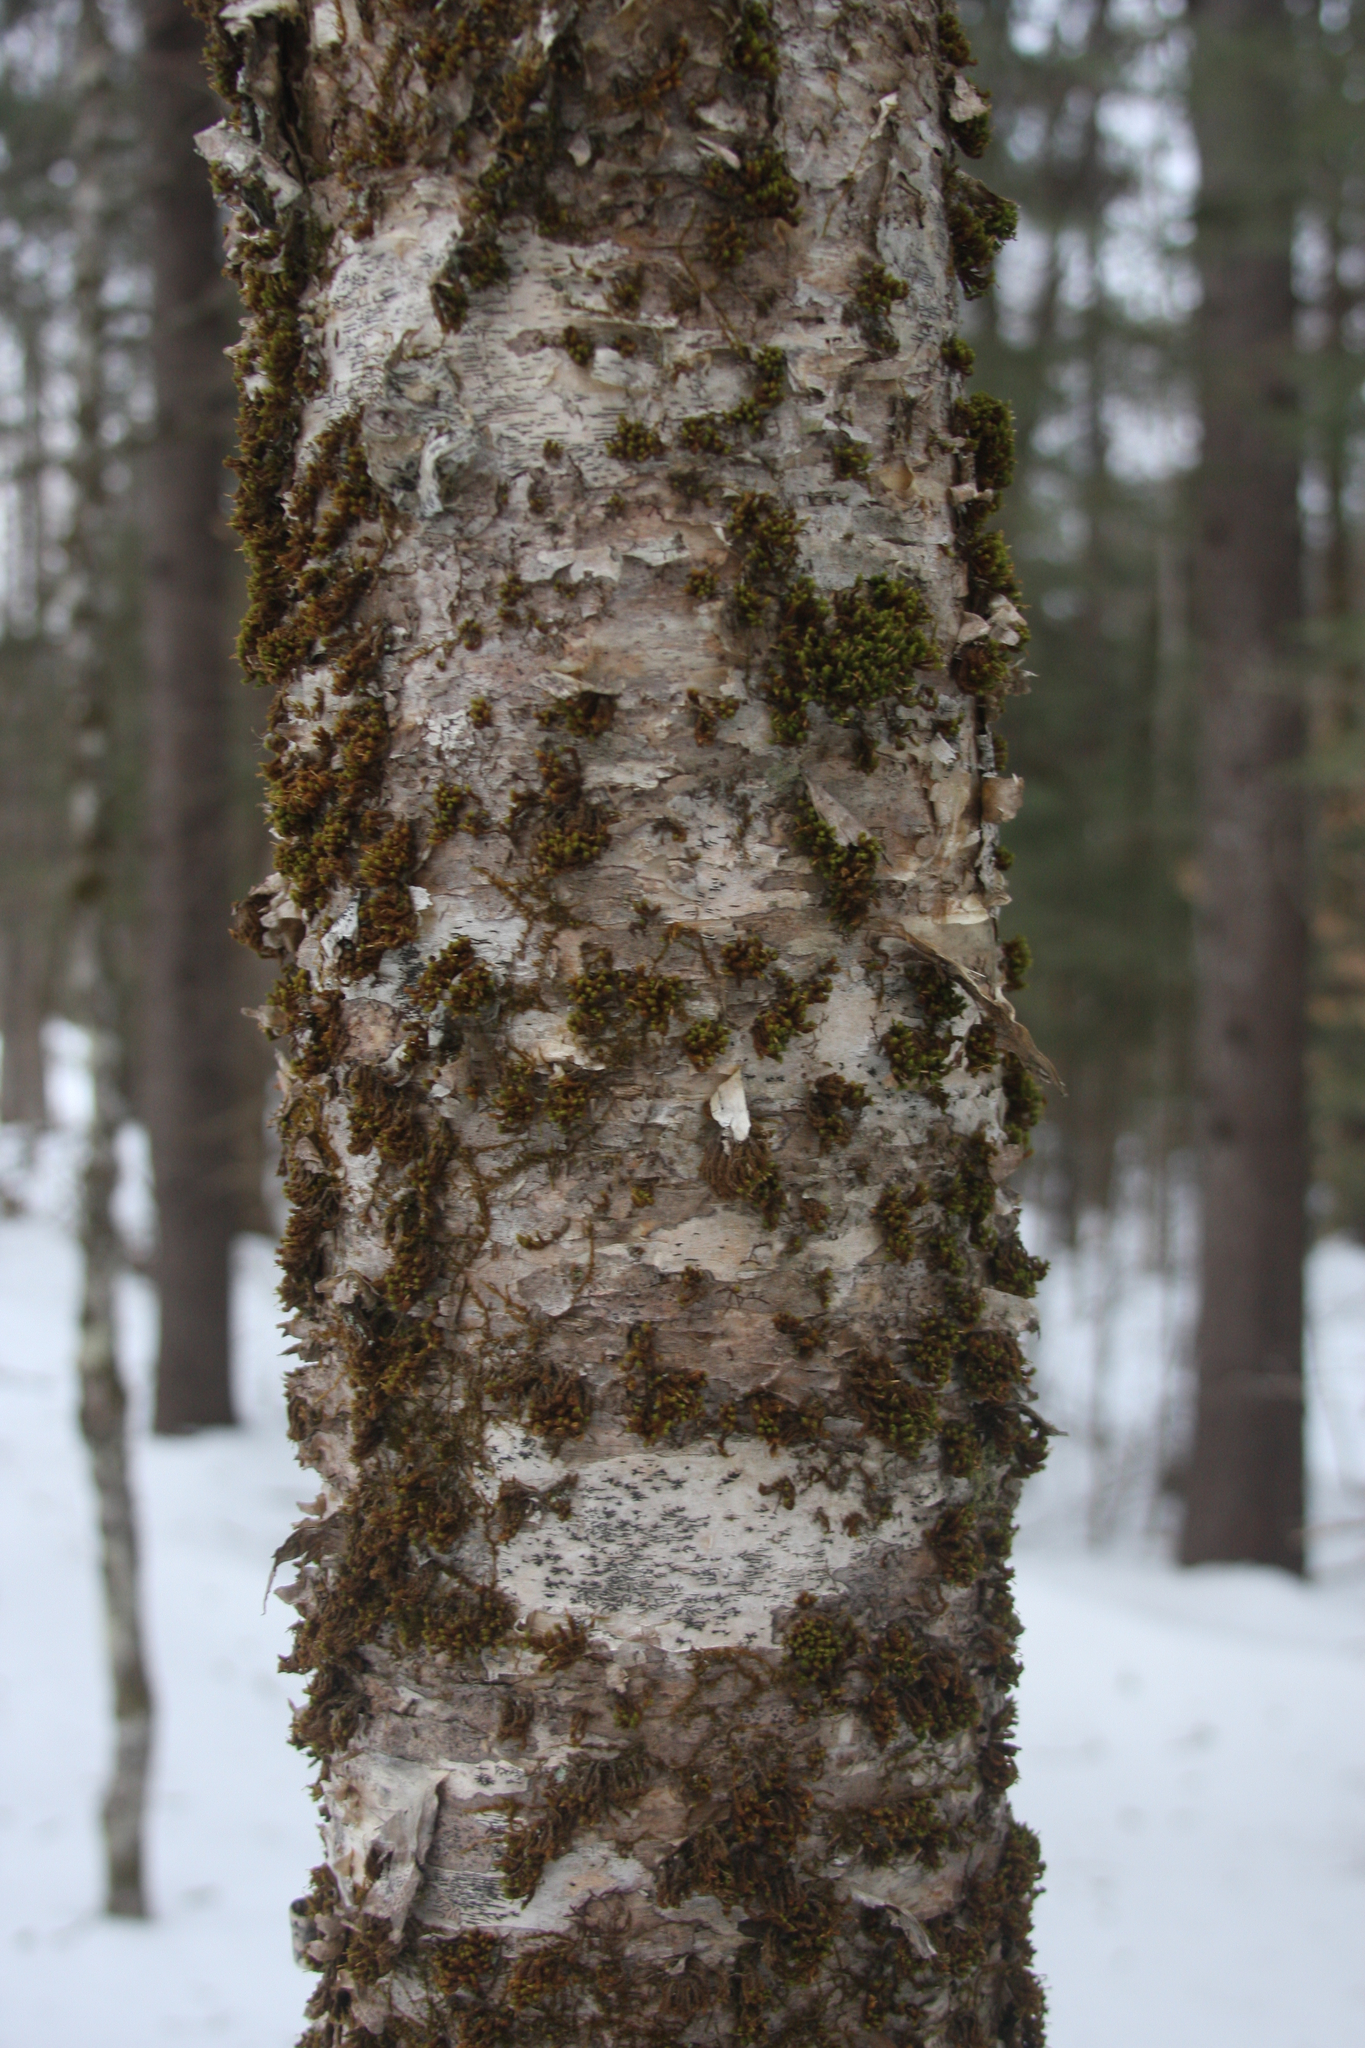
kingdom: Fungi
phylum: Ascomycota
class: Lecanoromycetes
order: Ostropales
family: Graphidaceae
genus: Graphis
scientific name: Graphis scripta
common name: Script lichen
